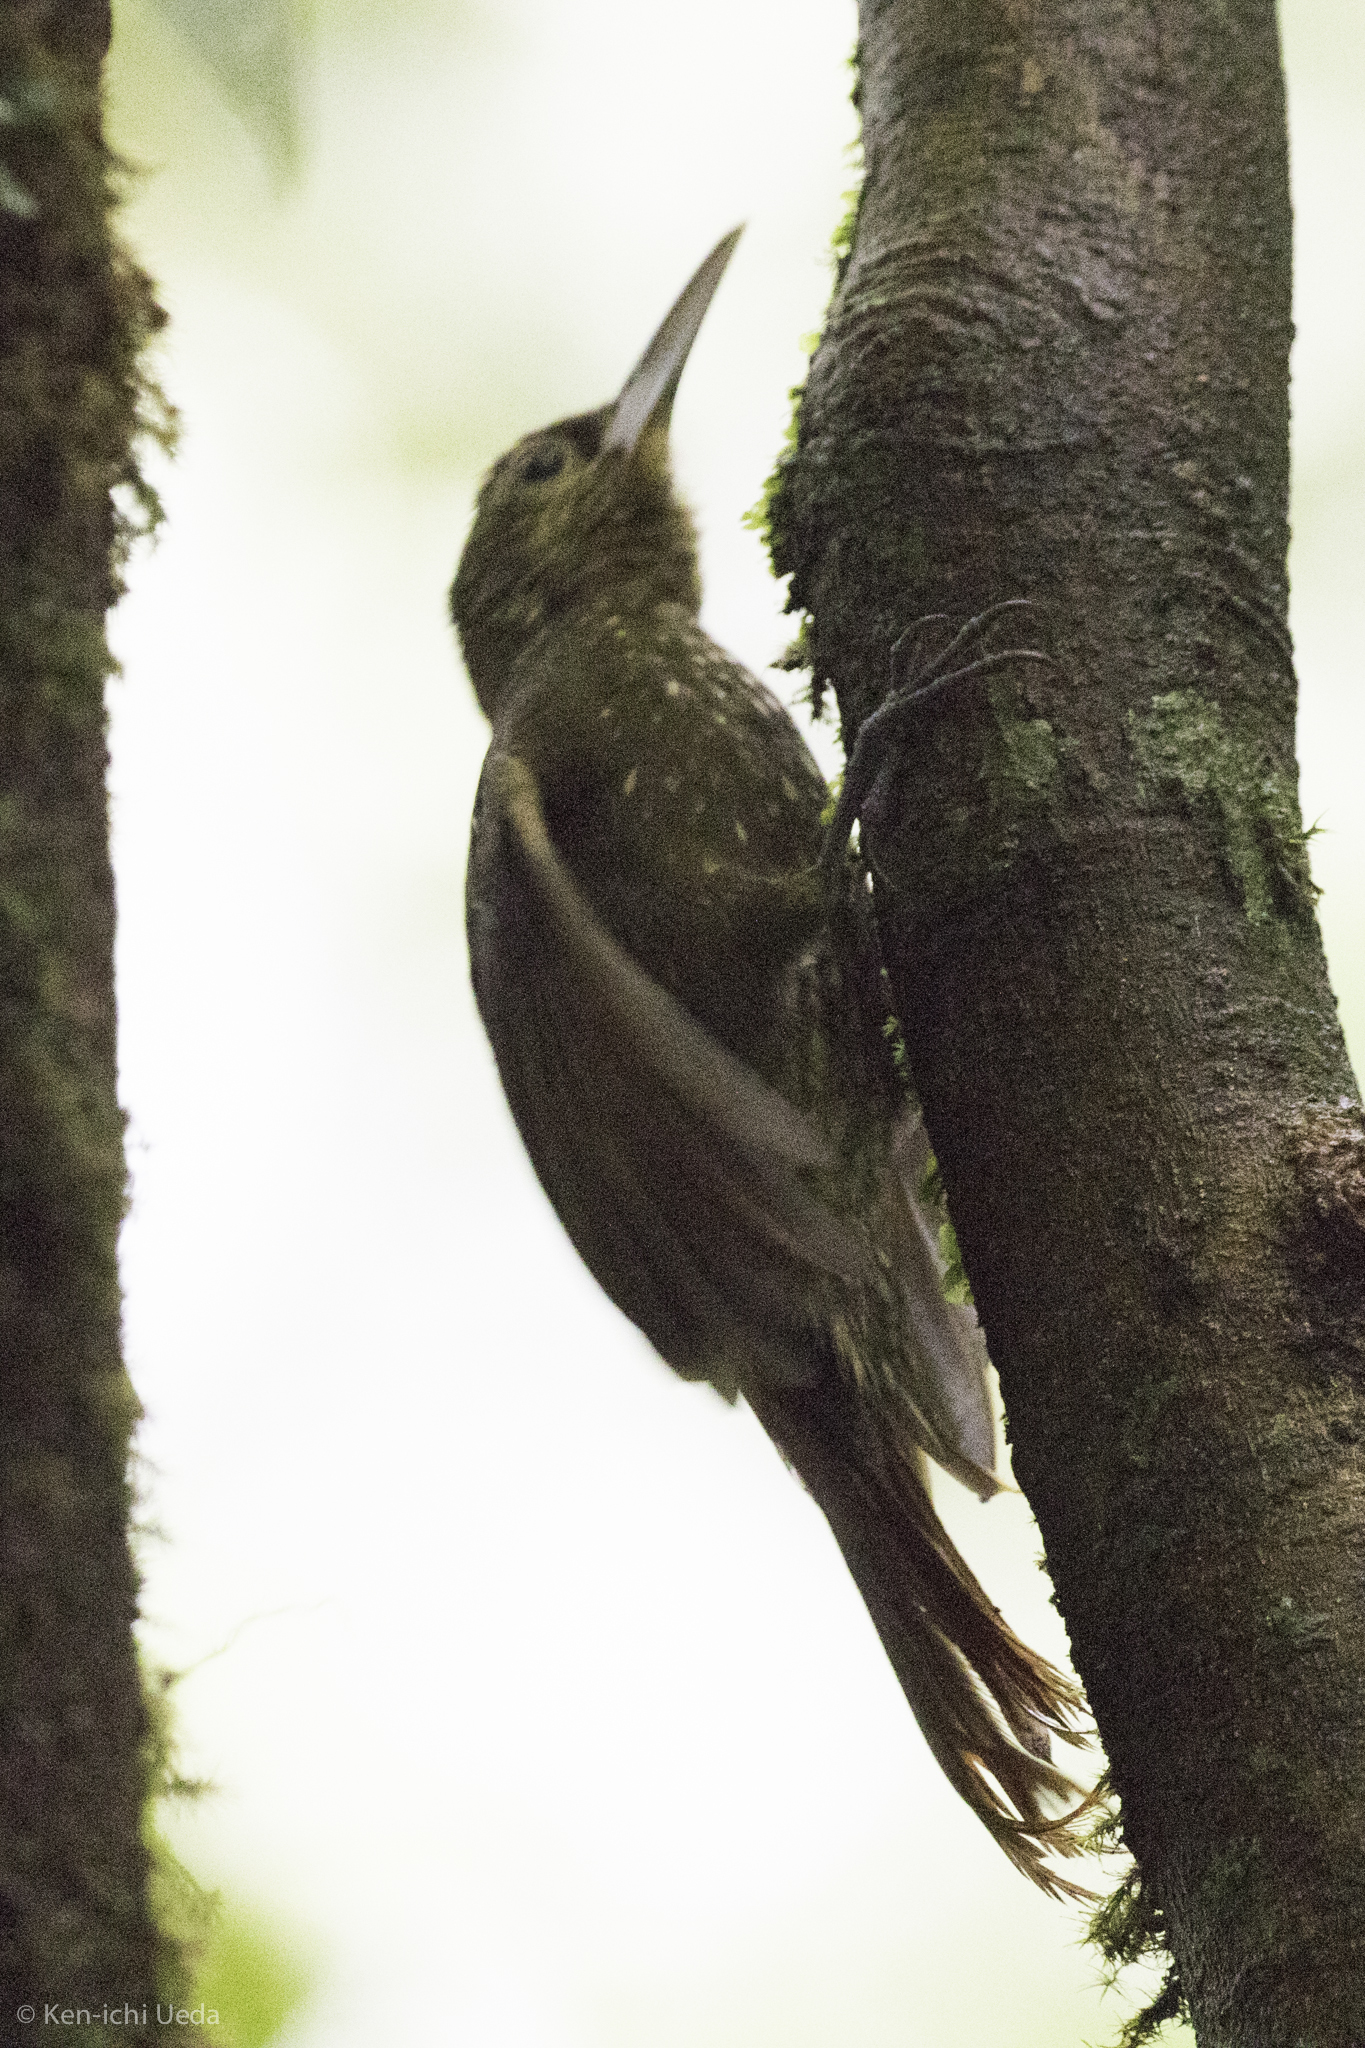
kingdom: Animalia
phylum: Chordata
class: Aves
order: Passeriformes
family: Furnariidae
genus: Xiphorhynchus
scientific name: Xiphorhynchus erythropygius
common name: Spotted woodcreeper
